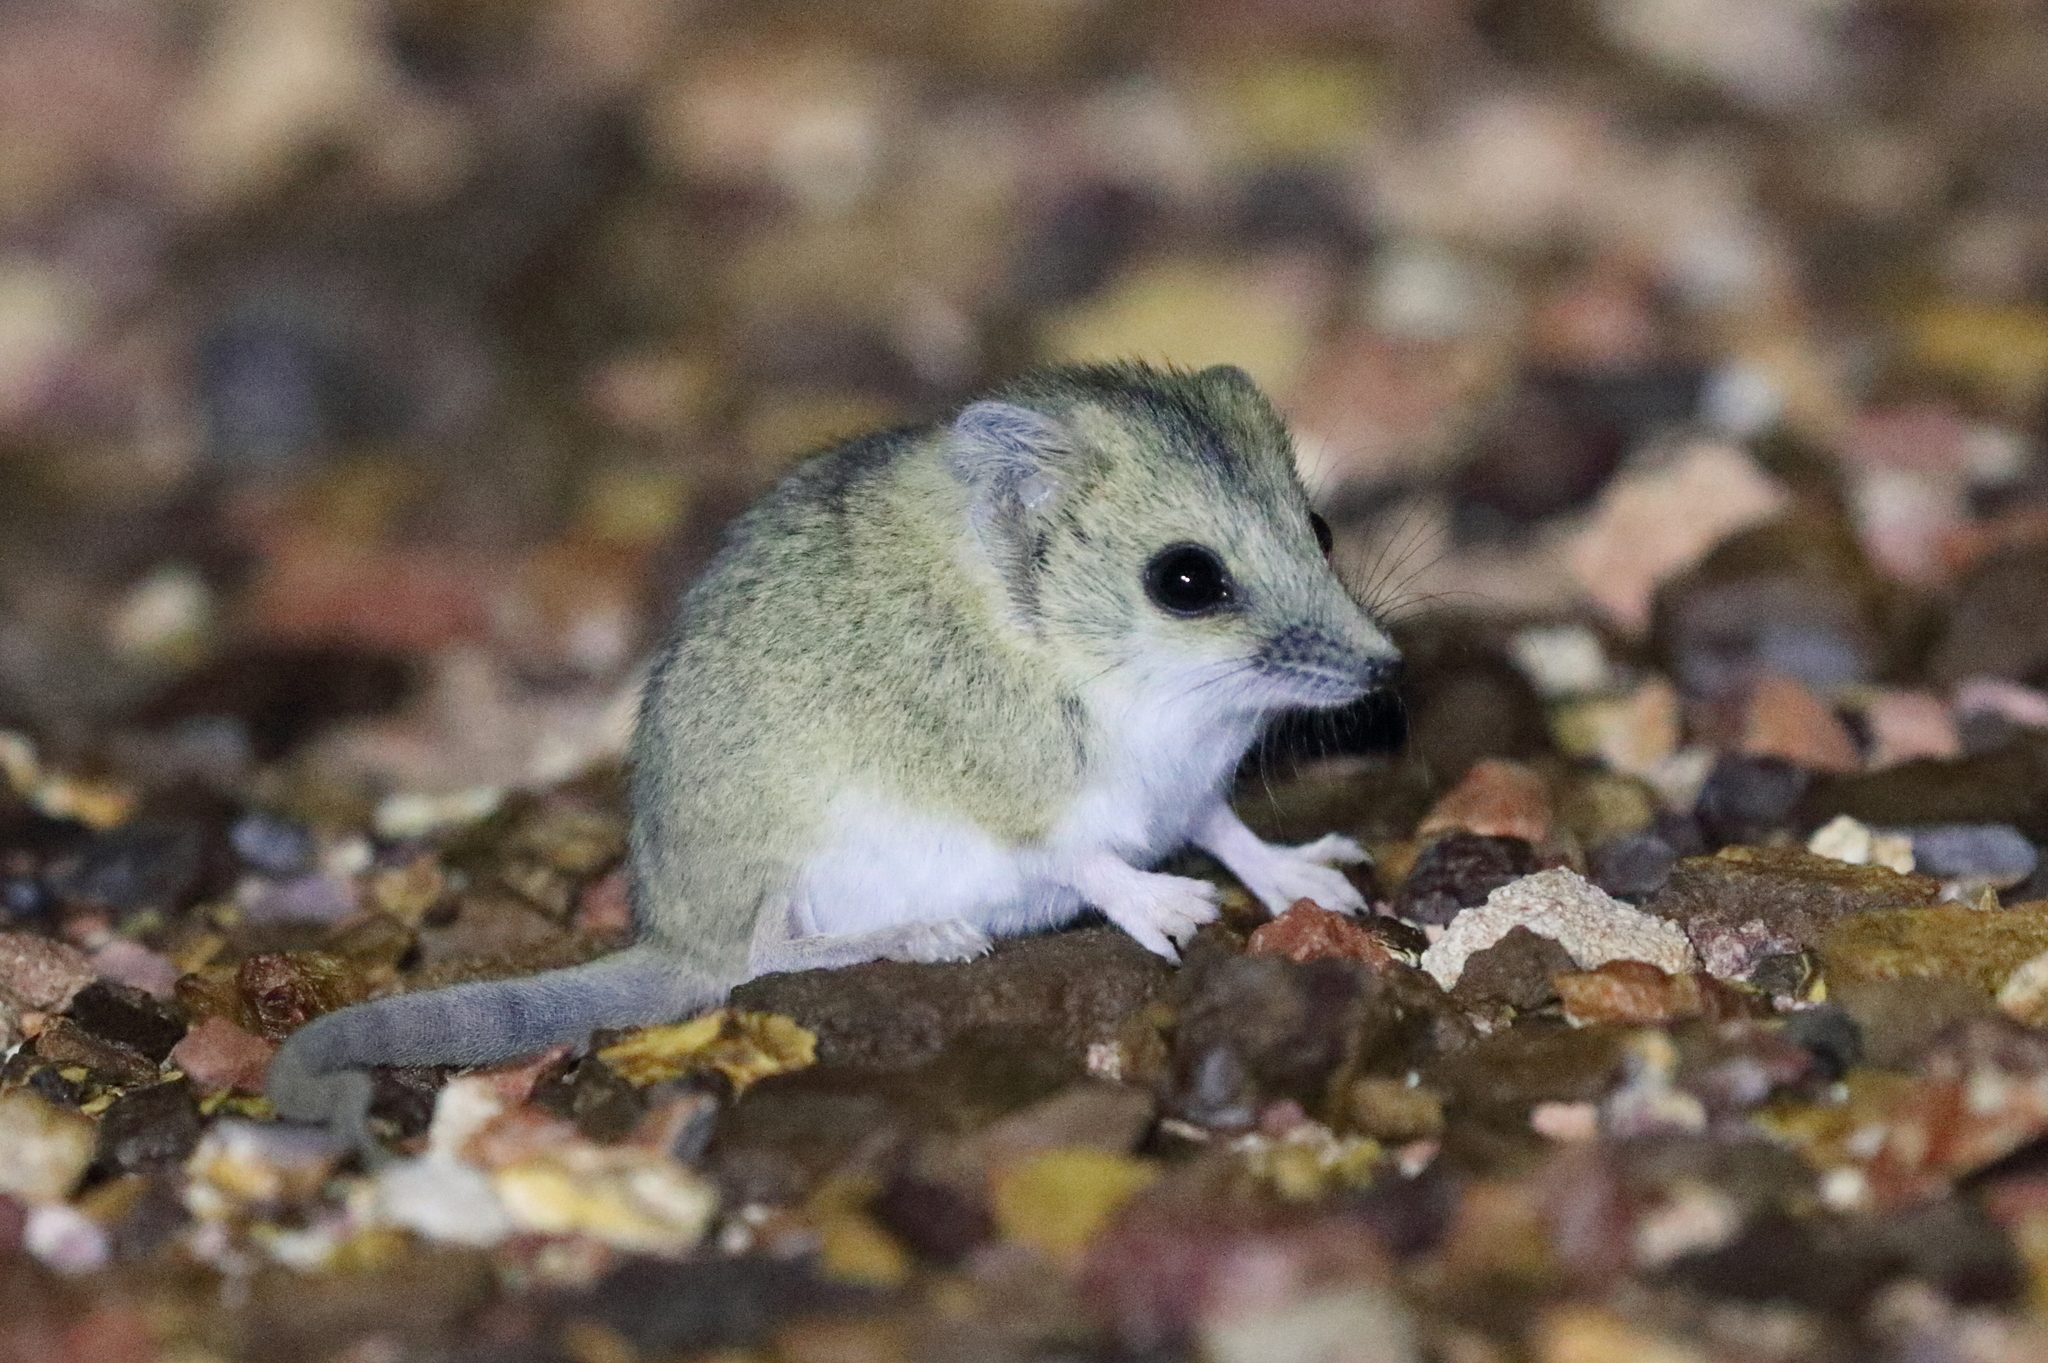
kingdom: Animalia
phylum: Chordata
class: Mammalia
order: Dasyuromorphia
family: Dasyuridae
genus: Sminthopsis
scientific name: Sminthopsis macroura
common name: Stripe-faced dunnart
